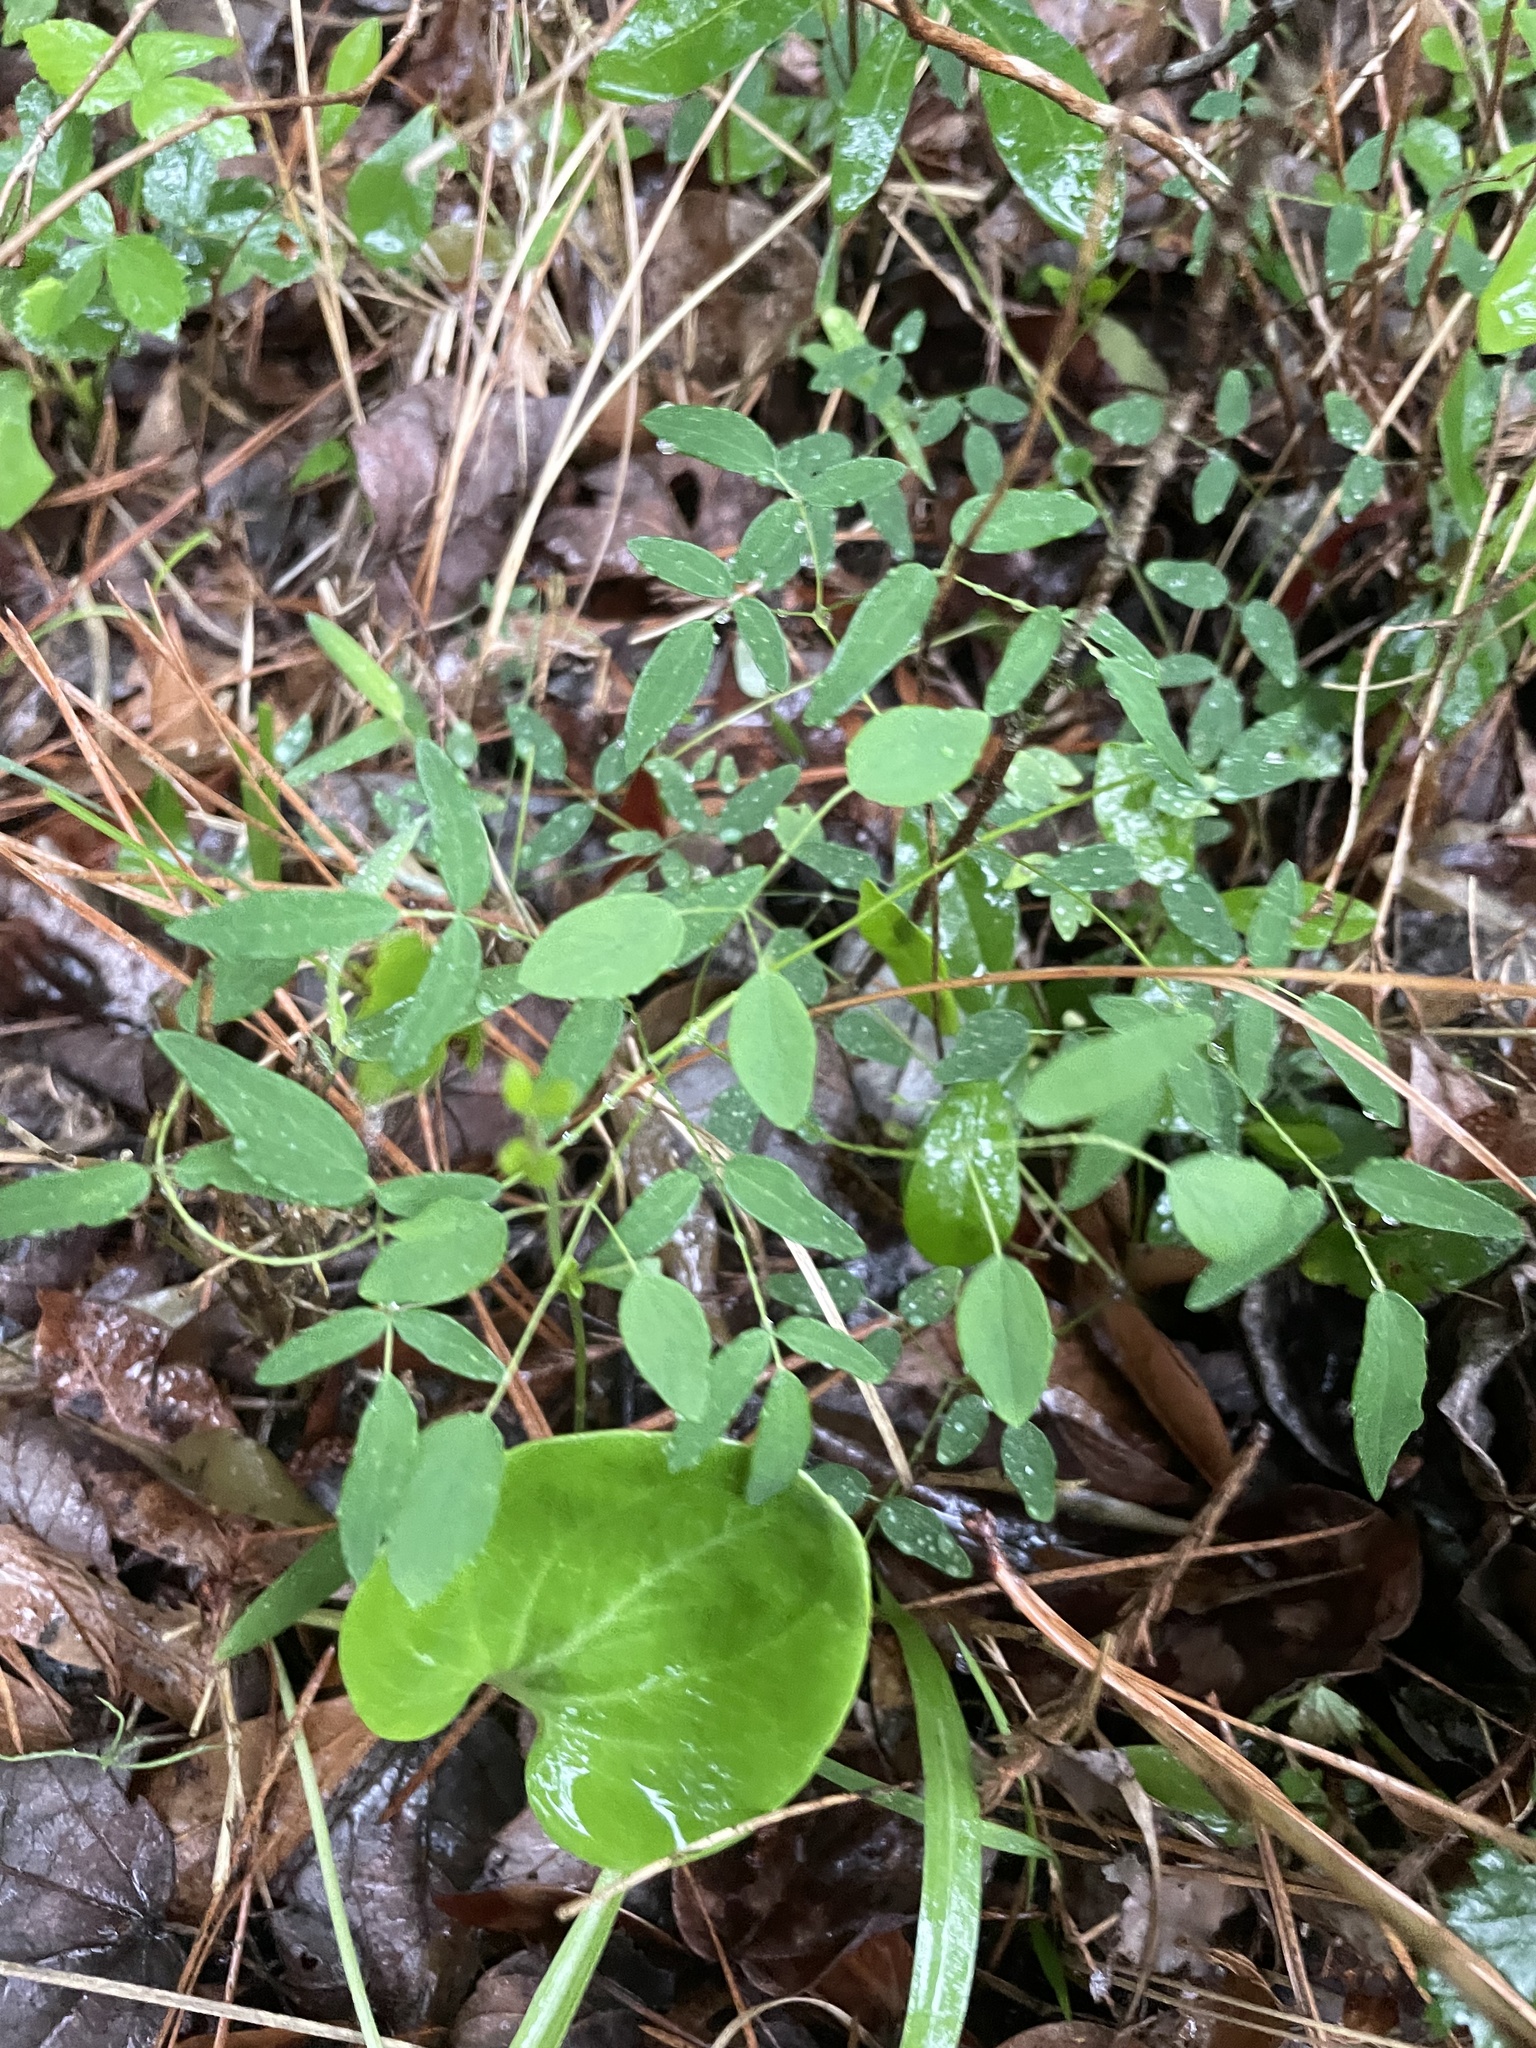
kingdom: Plantae
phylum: Tracheophyta
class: Magnoliopsida
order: Ranunculales
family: Ranunculaceae
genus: Thalictrum
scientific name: Thalictrum cooleyi
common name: Cooley's meadow-rue
